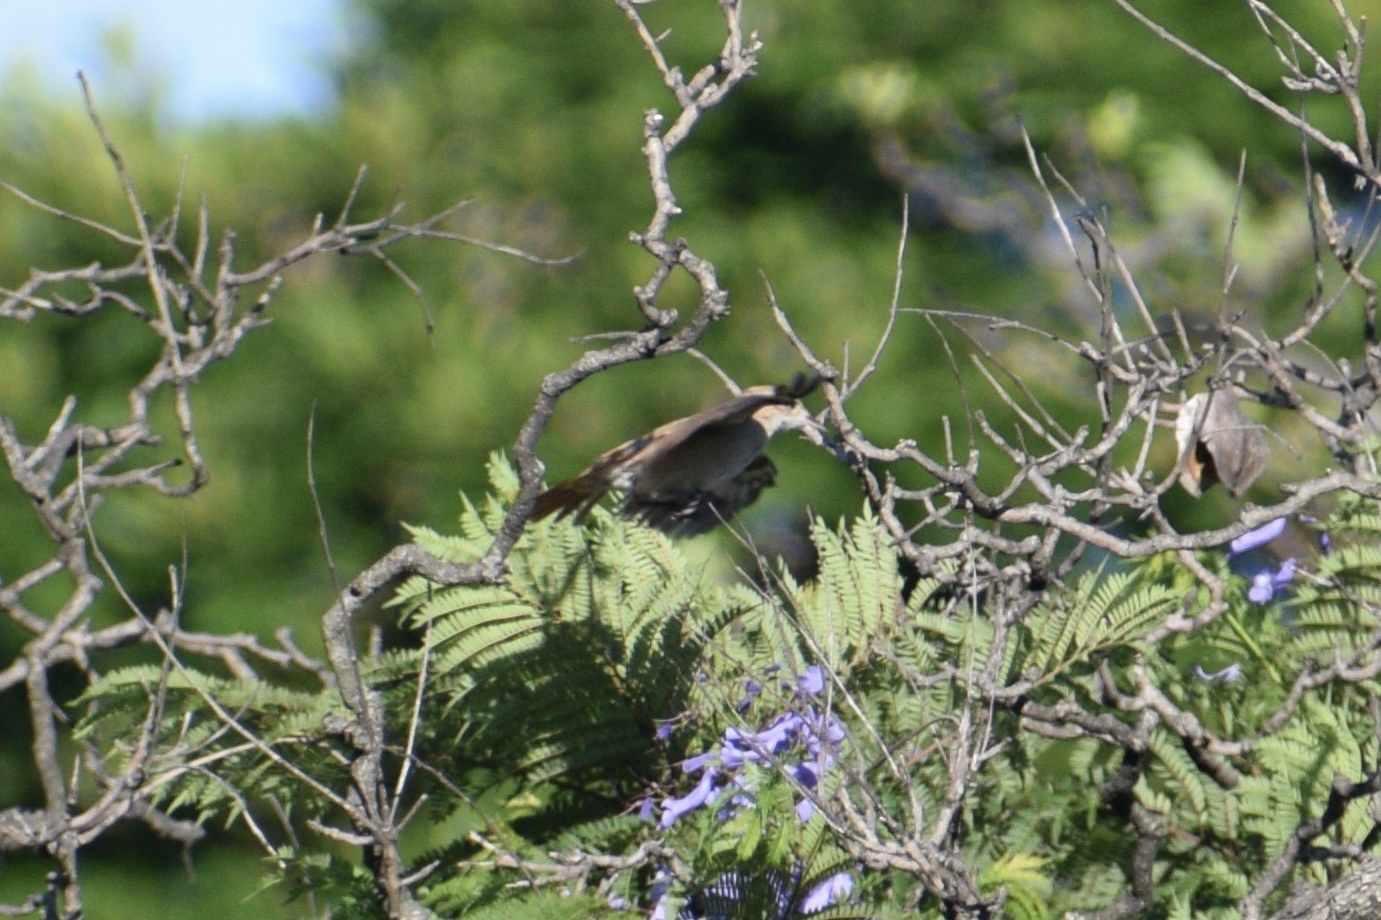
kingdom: Animalia
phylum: Chordata
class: Aves
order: Passeriformes
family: Furnariidae
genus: Furnarius
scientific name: Furnarius rufus
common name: Rufous hornero
